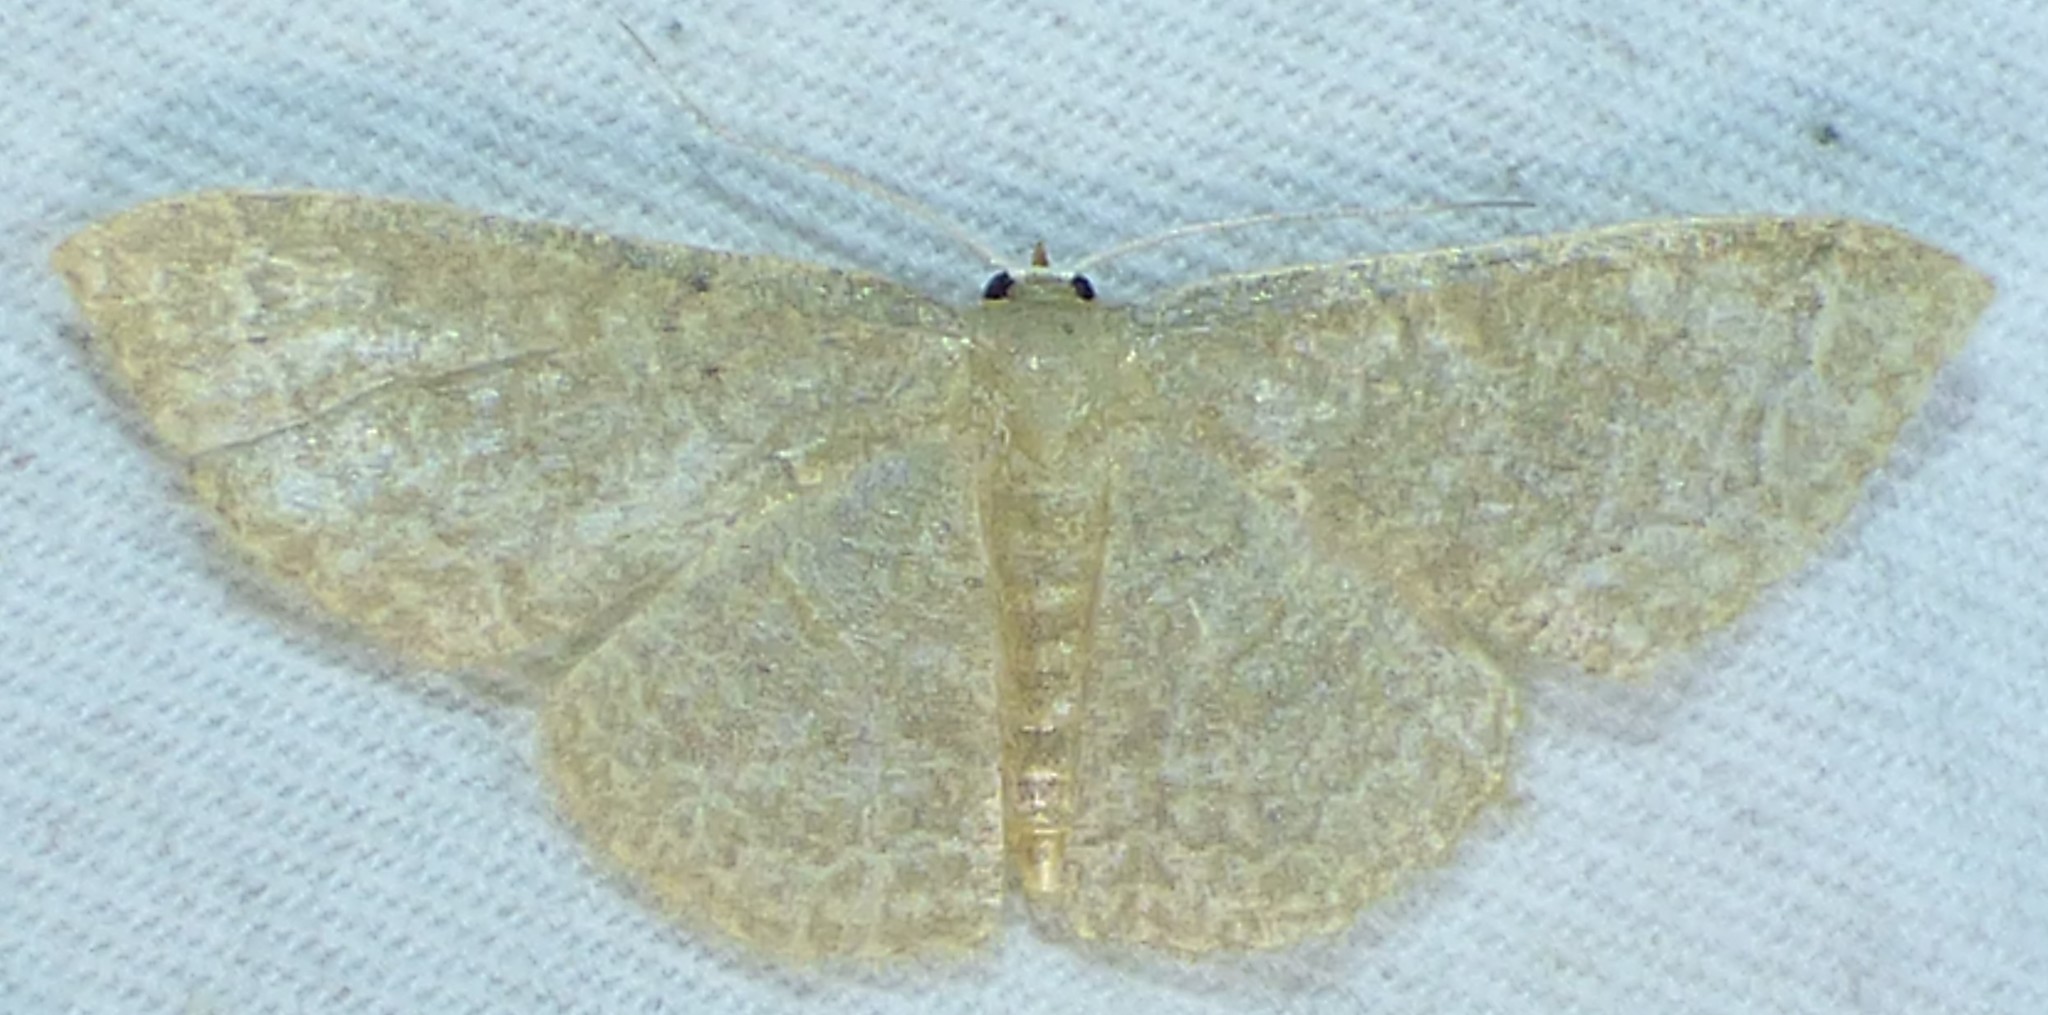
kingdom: Animalia
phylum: Arthropoda
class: Insecta
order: Lepidoptera
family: Geometridae
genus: Pleuroprucha
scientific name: Pleuroprucha insulsaria
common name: Common tan wave
